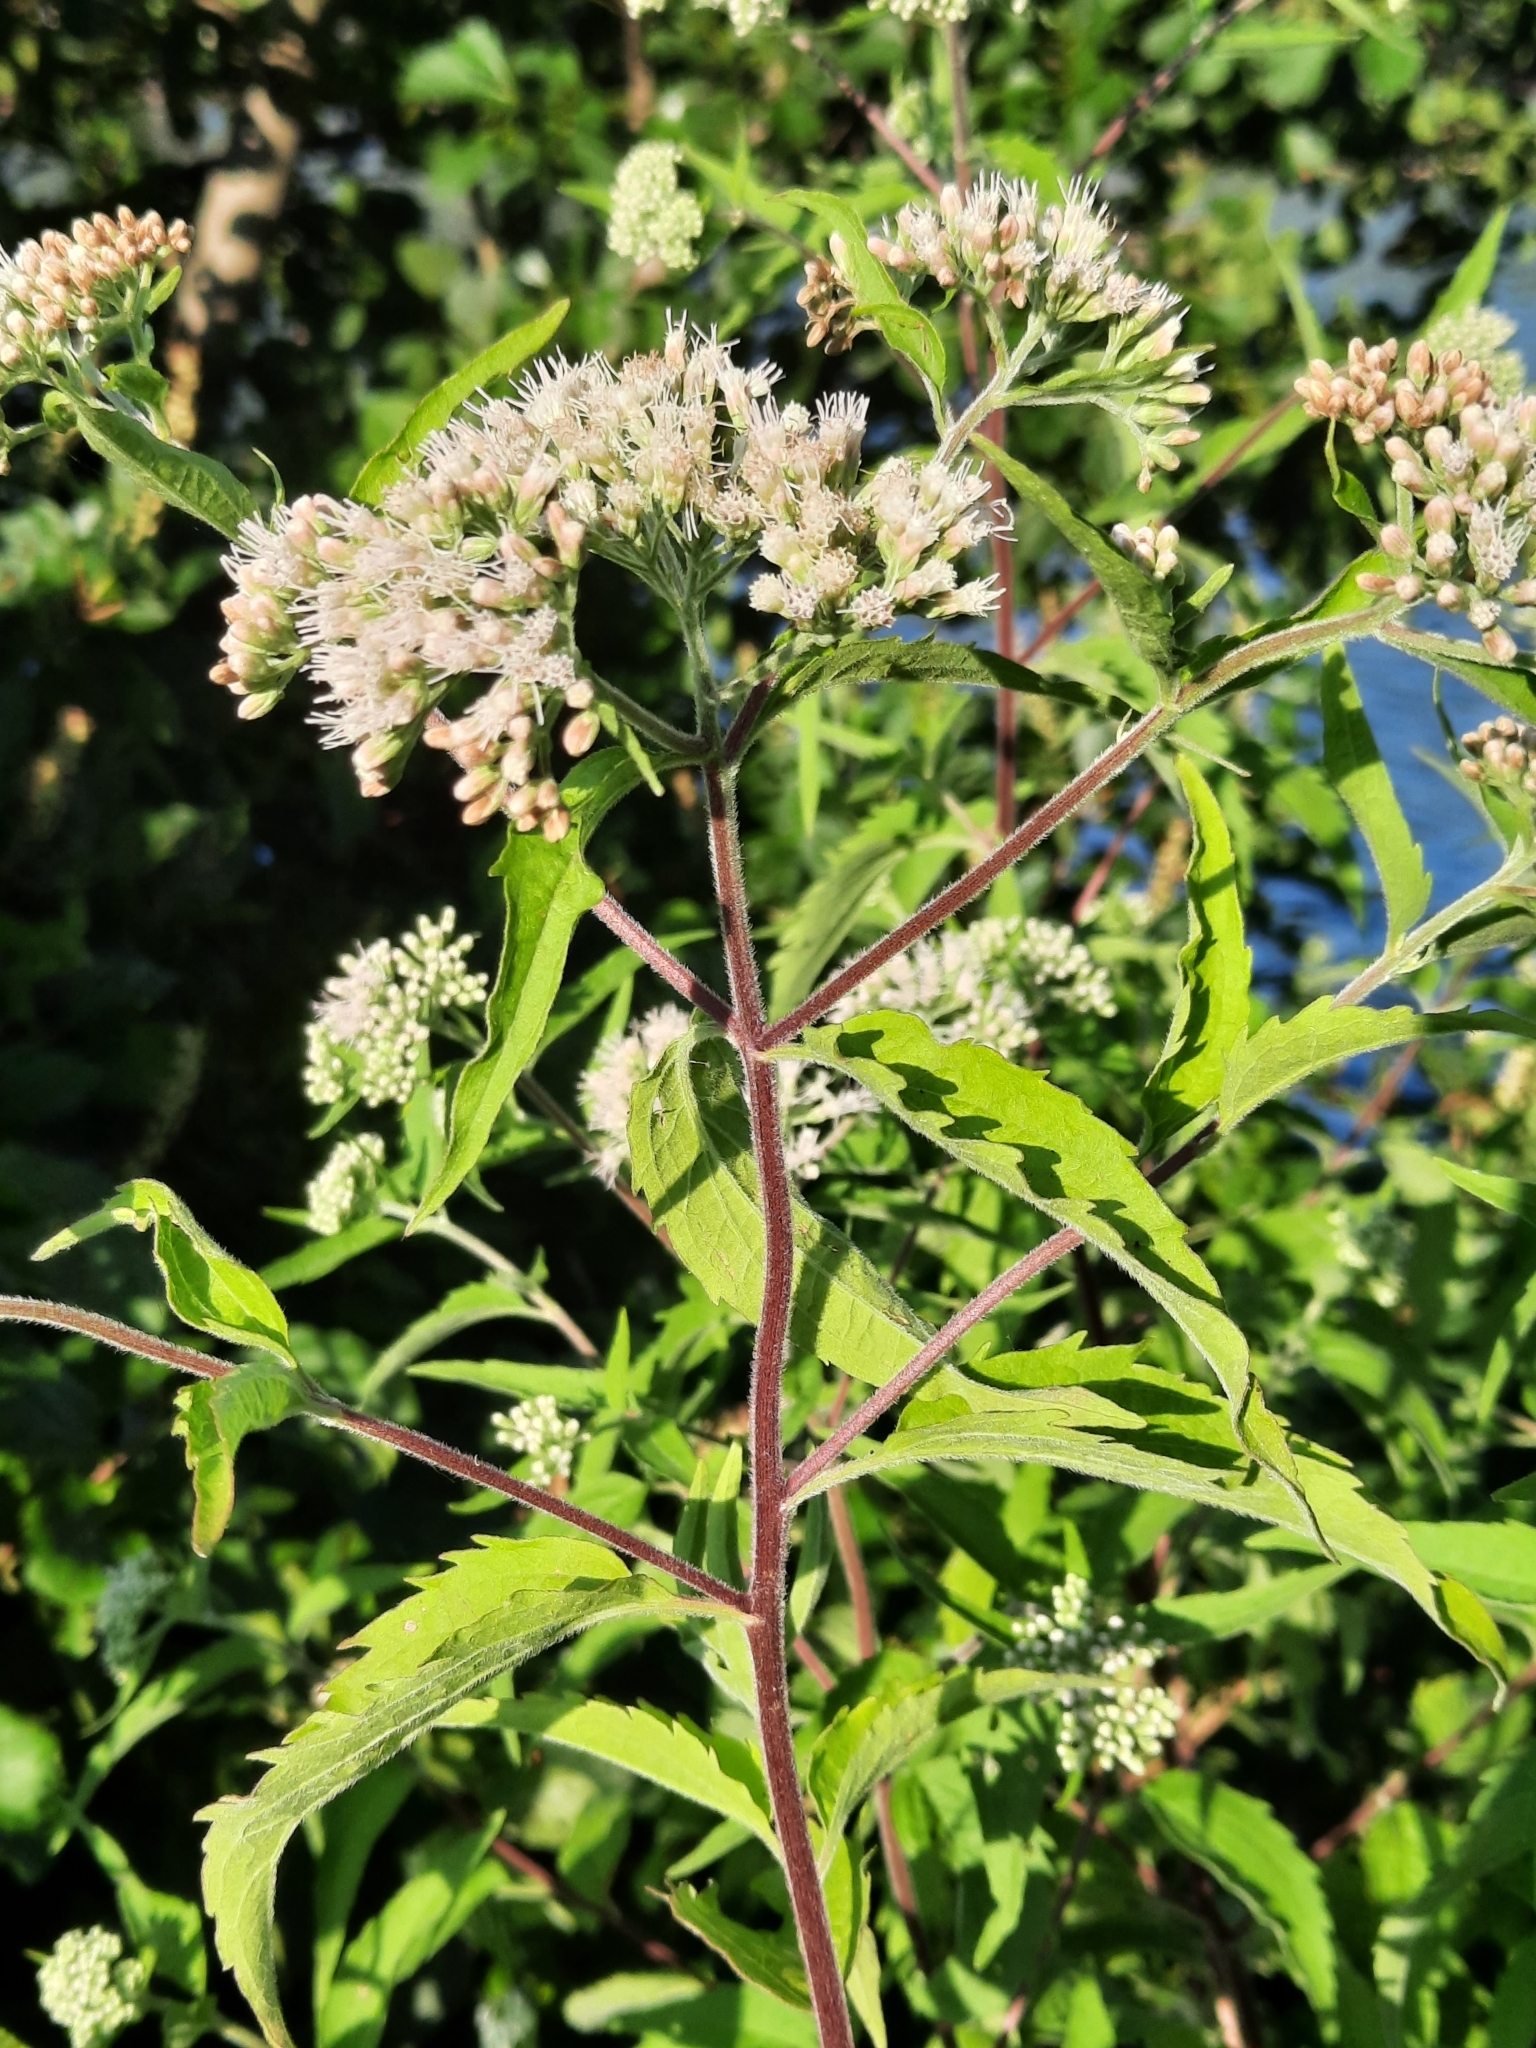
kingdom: Plantae
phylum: Tracheophyta
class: Magnoliopsida
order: Asterales
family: Asteraceae
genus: Eupatorium
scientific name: Eupatorium serotinum
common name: Late boneset
